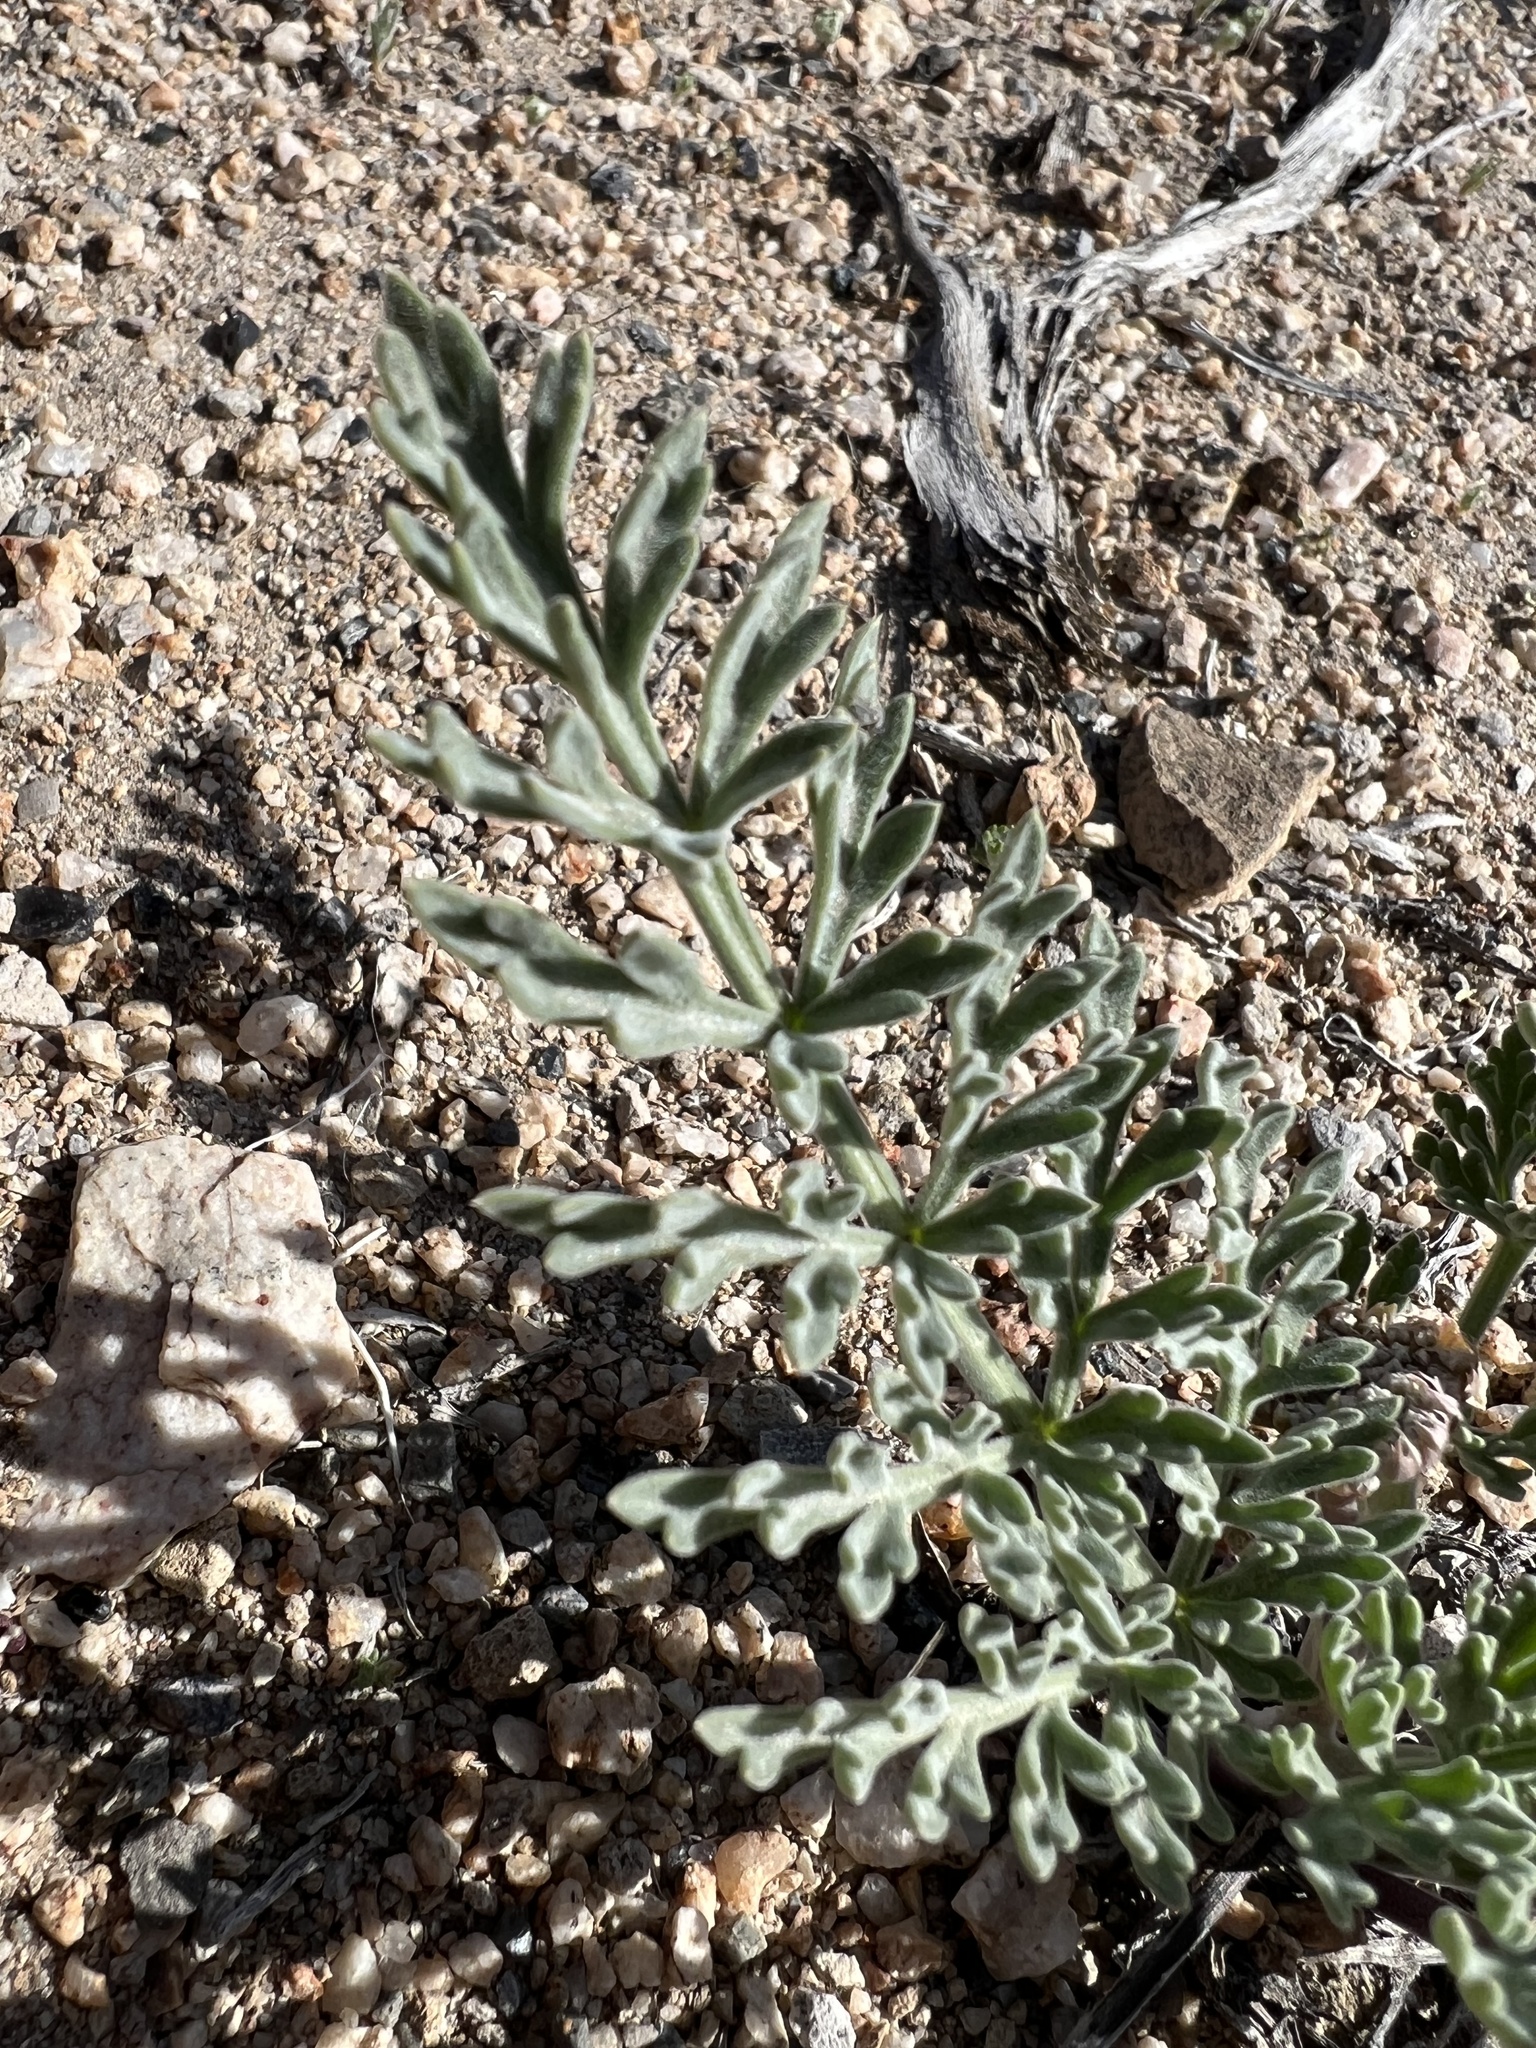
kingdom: Plantae
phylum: Tracheophyta
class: Magnoliopsida
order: Apiales
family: Apiaceae
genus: Lomatium
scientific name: Lomatium nevadense
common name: Nevada lomatium
